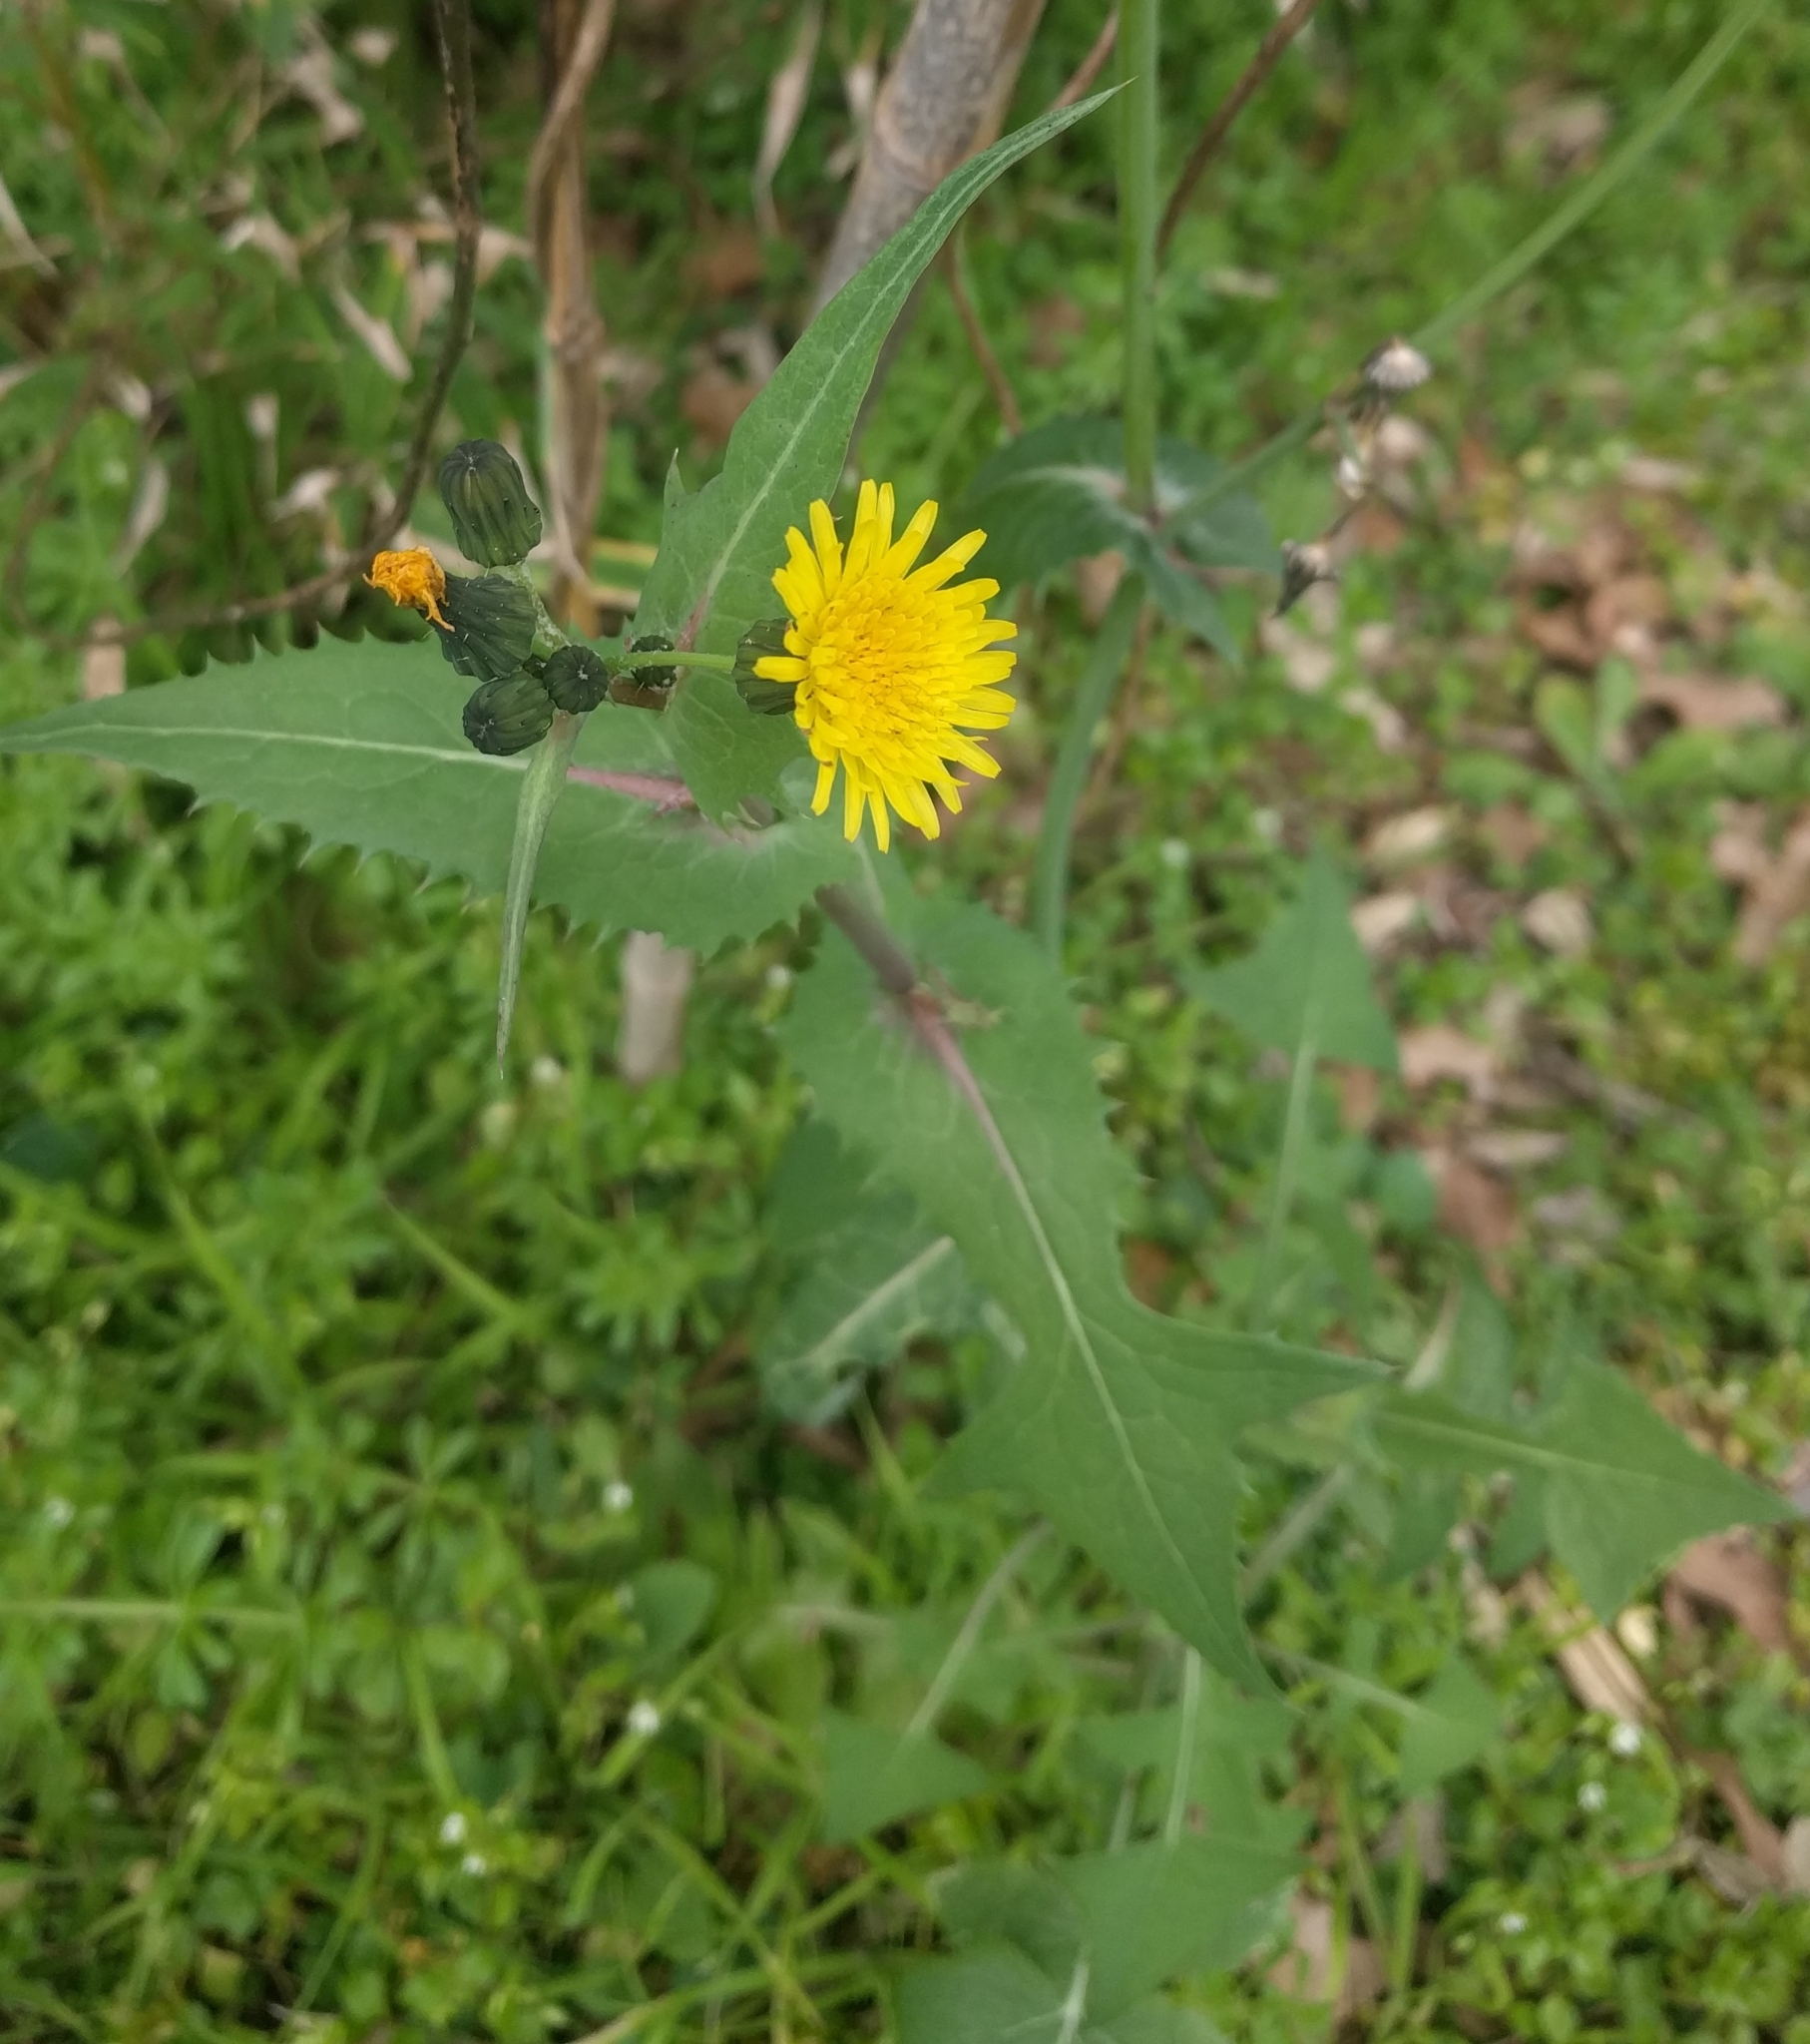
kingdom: Plantae
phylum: Tracheophyta
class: Magnoliopsida
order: Asterales
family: Asteraceae
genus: Sonchus
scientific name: Sonchus oleraceus
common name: Common sowthistle
